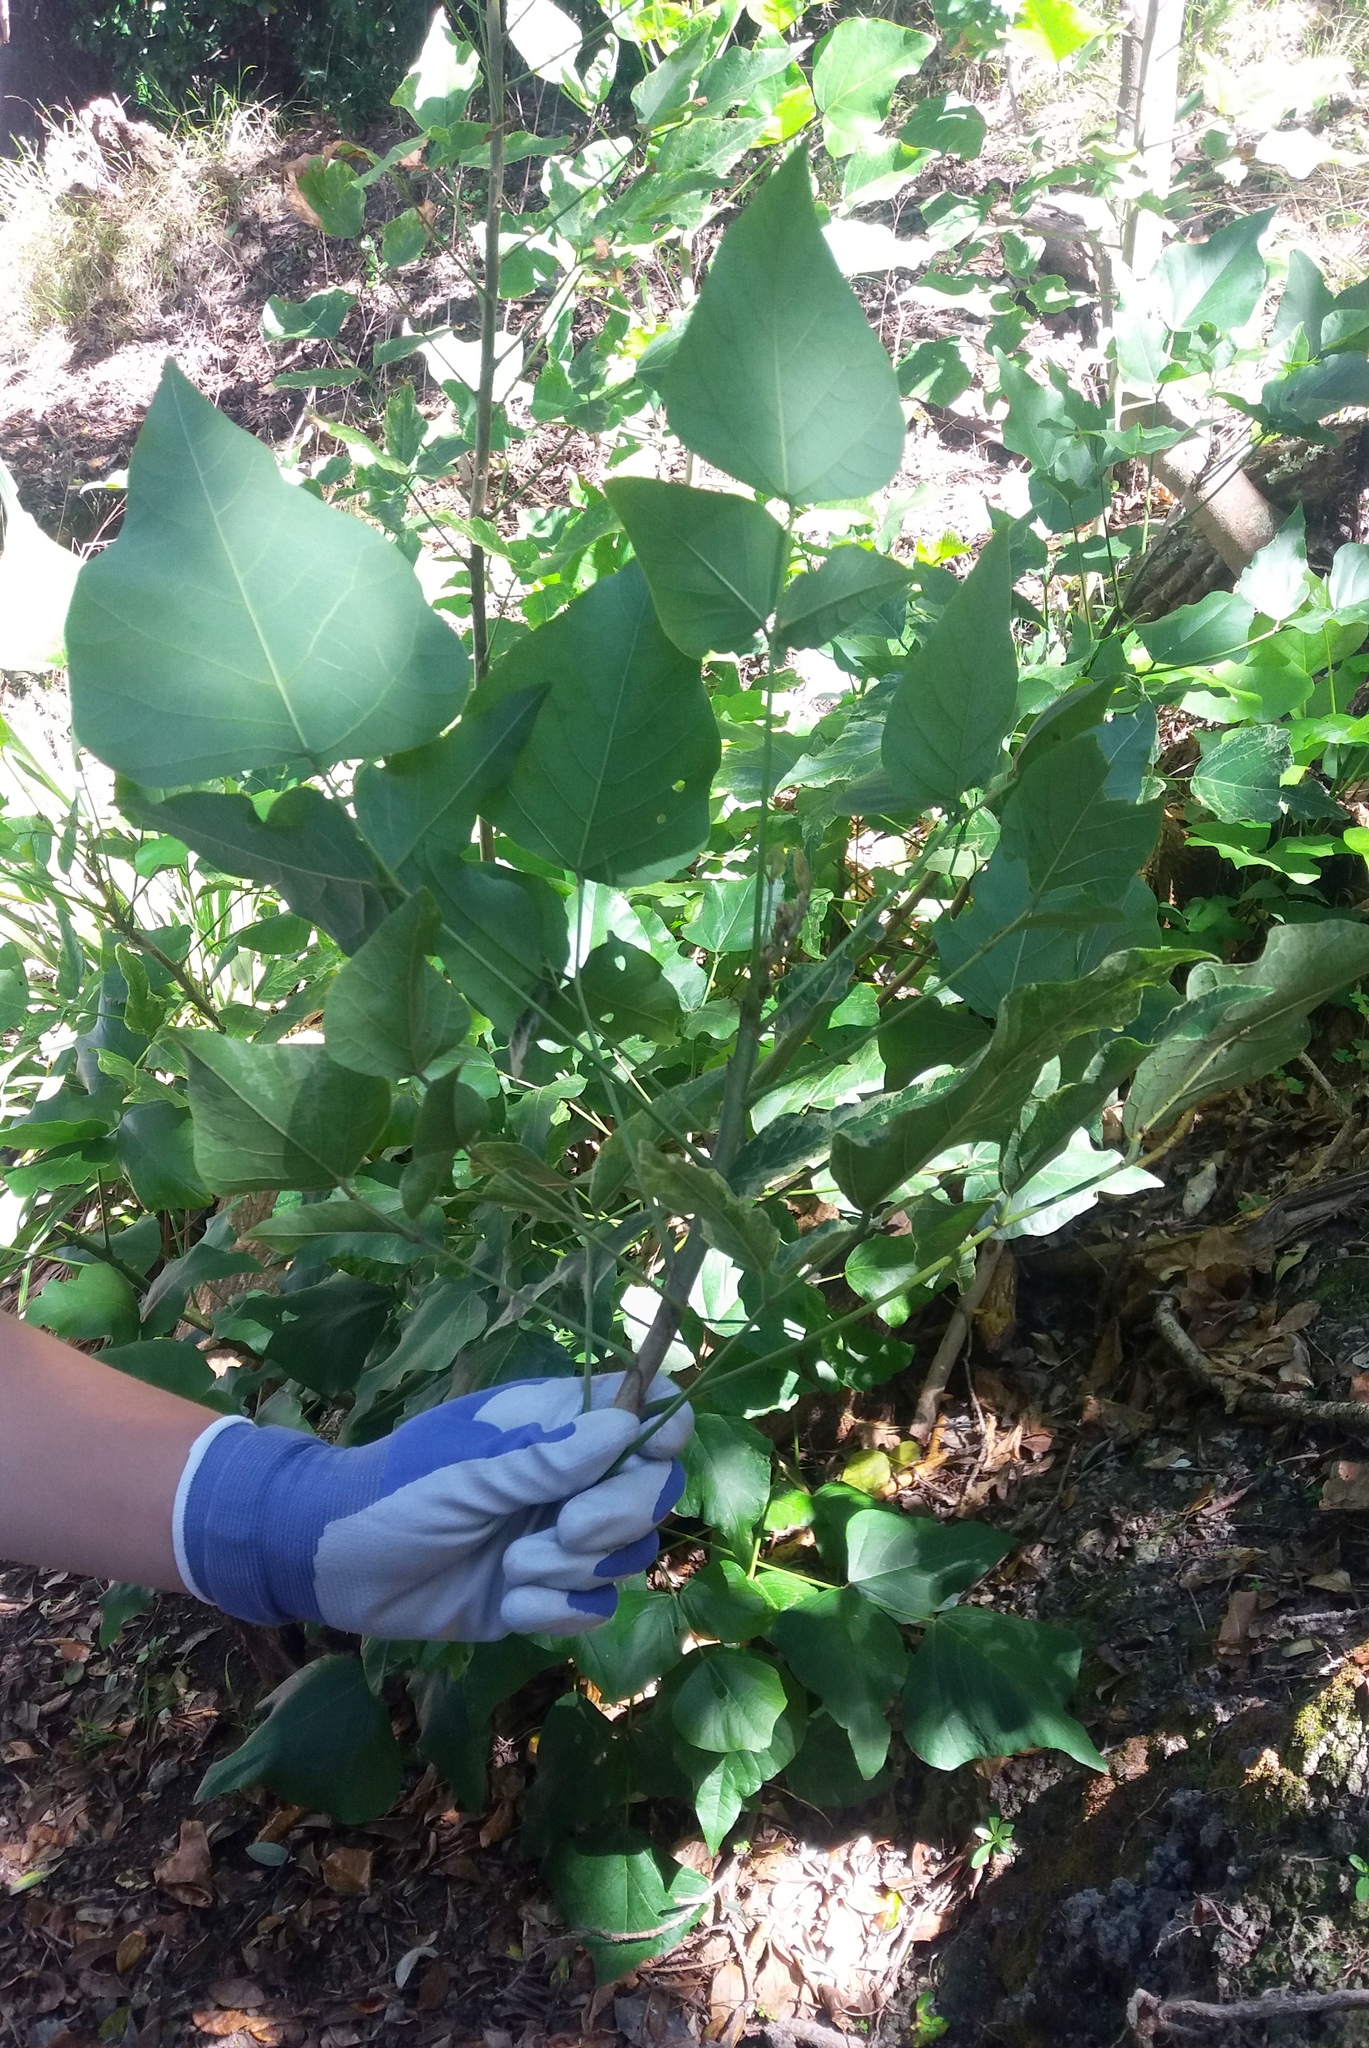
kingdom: Plantae
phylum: Tracheophyta
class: Magnoliopsida
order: Fabales
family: Fabaceae
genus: Erythrina
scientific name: Erythrina sykesii
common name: Coraltree
